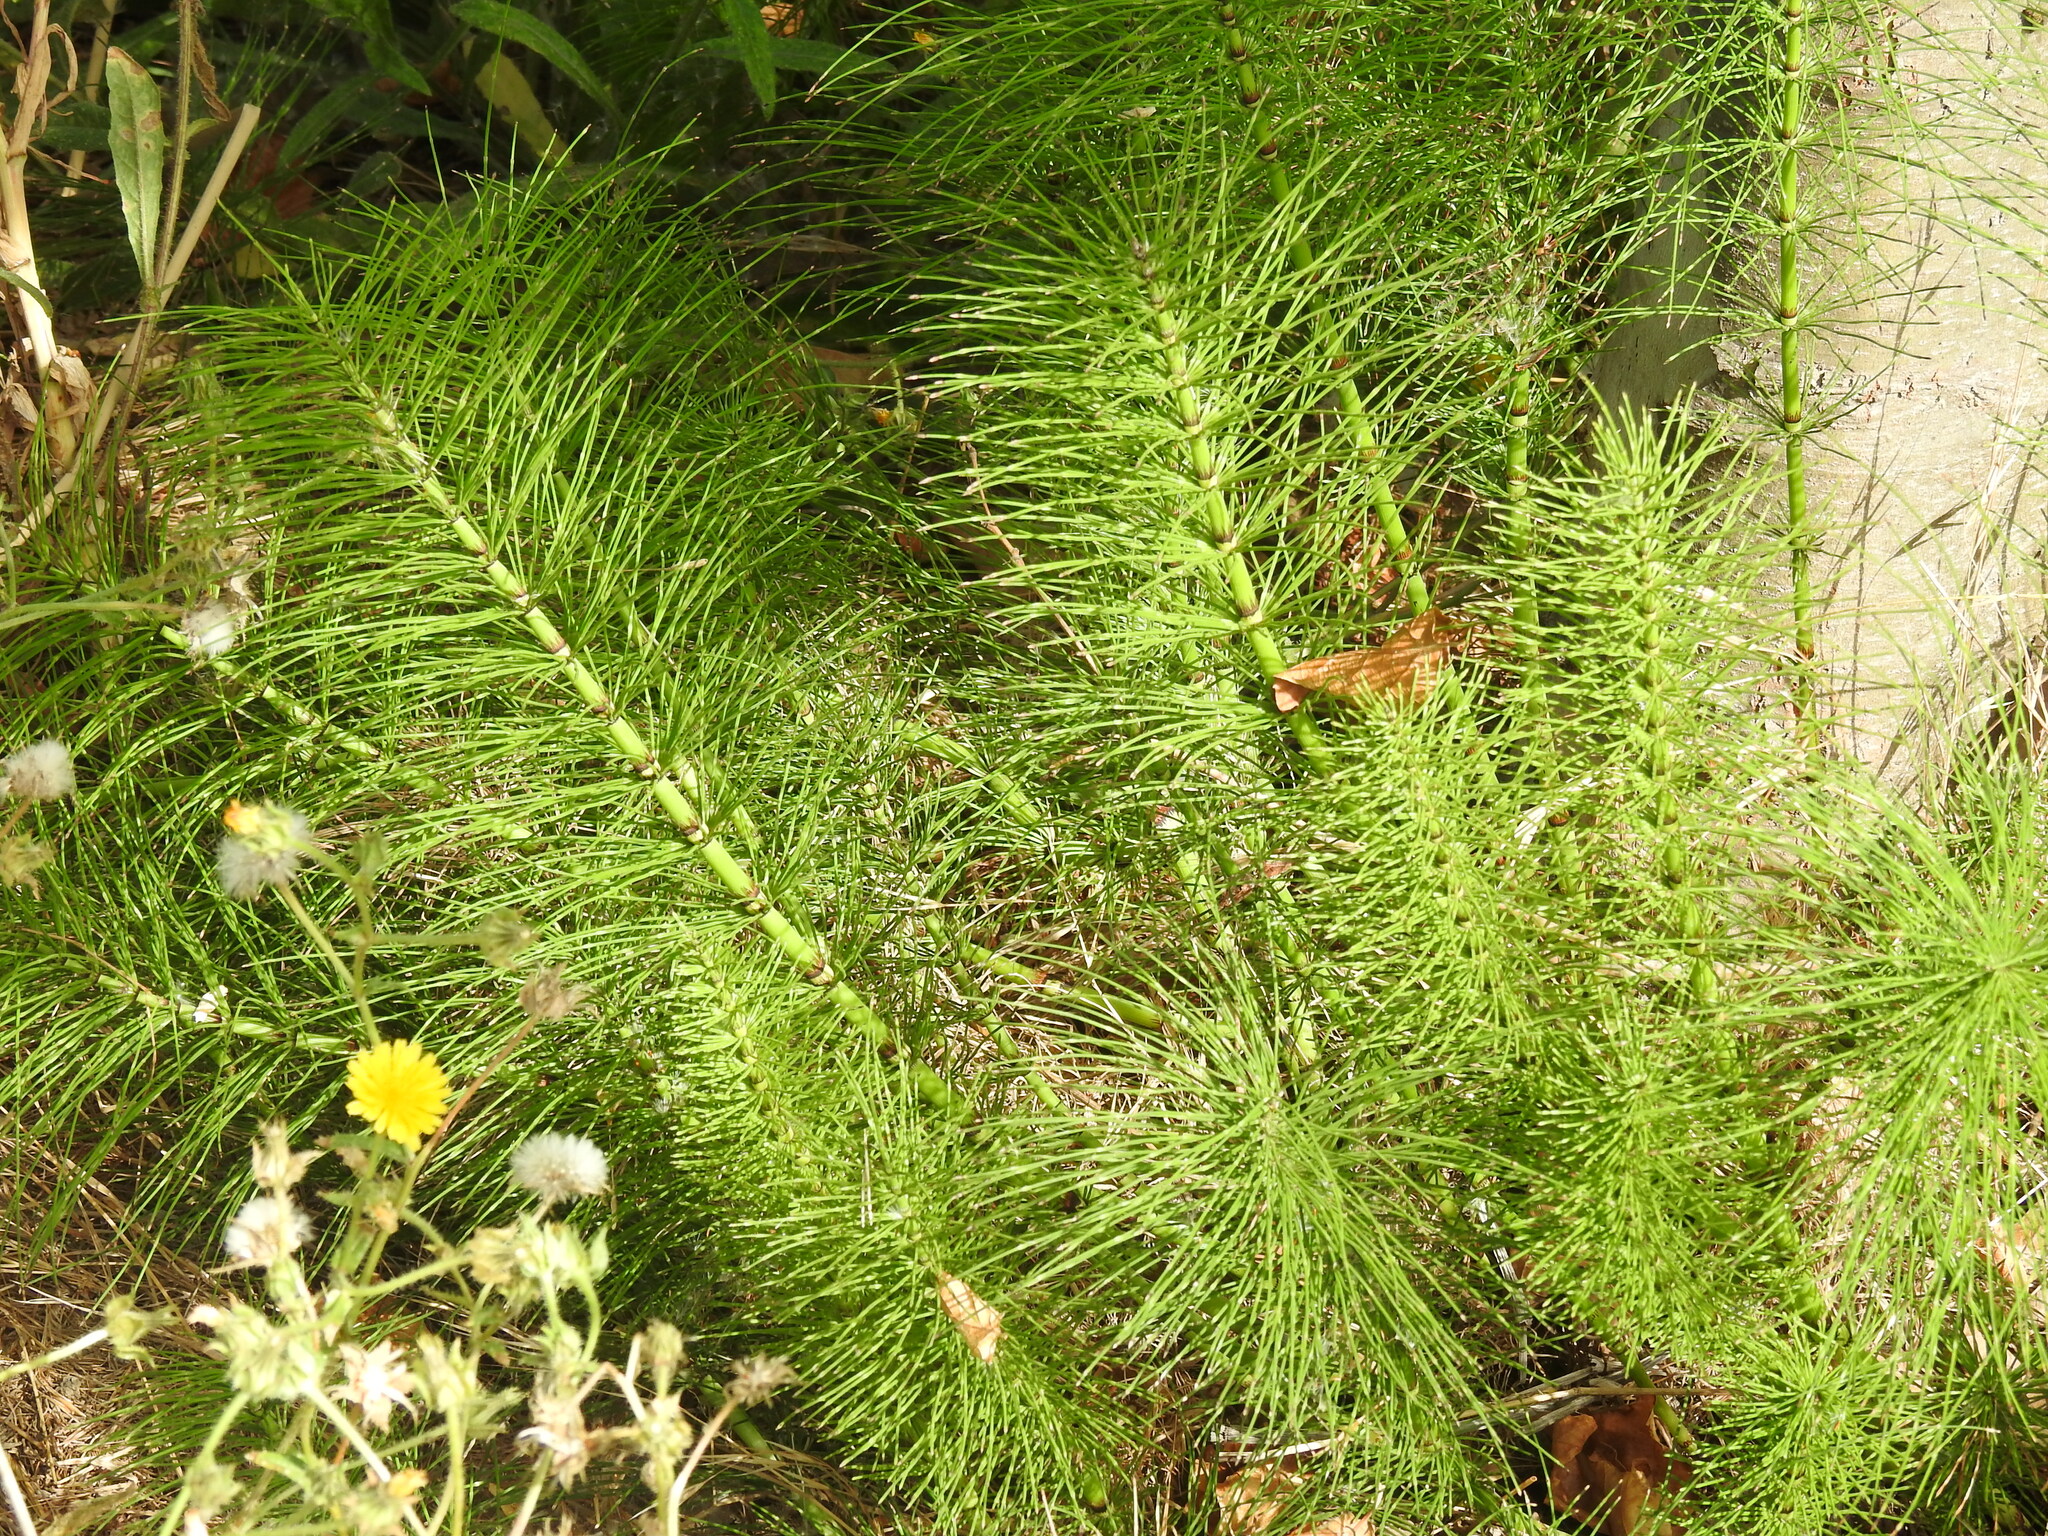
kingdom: Plantae
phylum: Tracheophyta
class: Polypodiopsida
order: Equisetales
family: Equisetaceae
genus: Equisetum
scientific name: Equisetum telmateia
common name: Great horsetail
